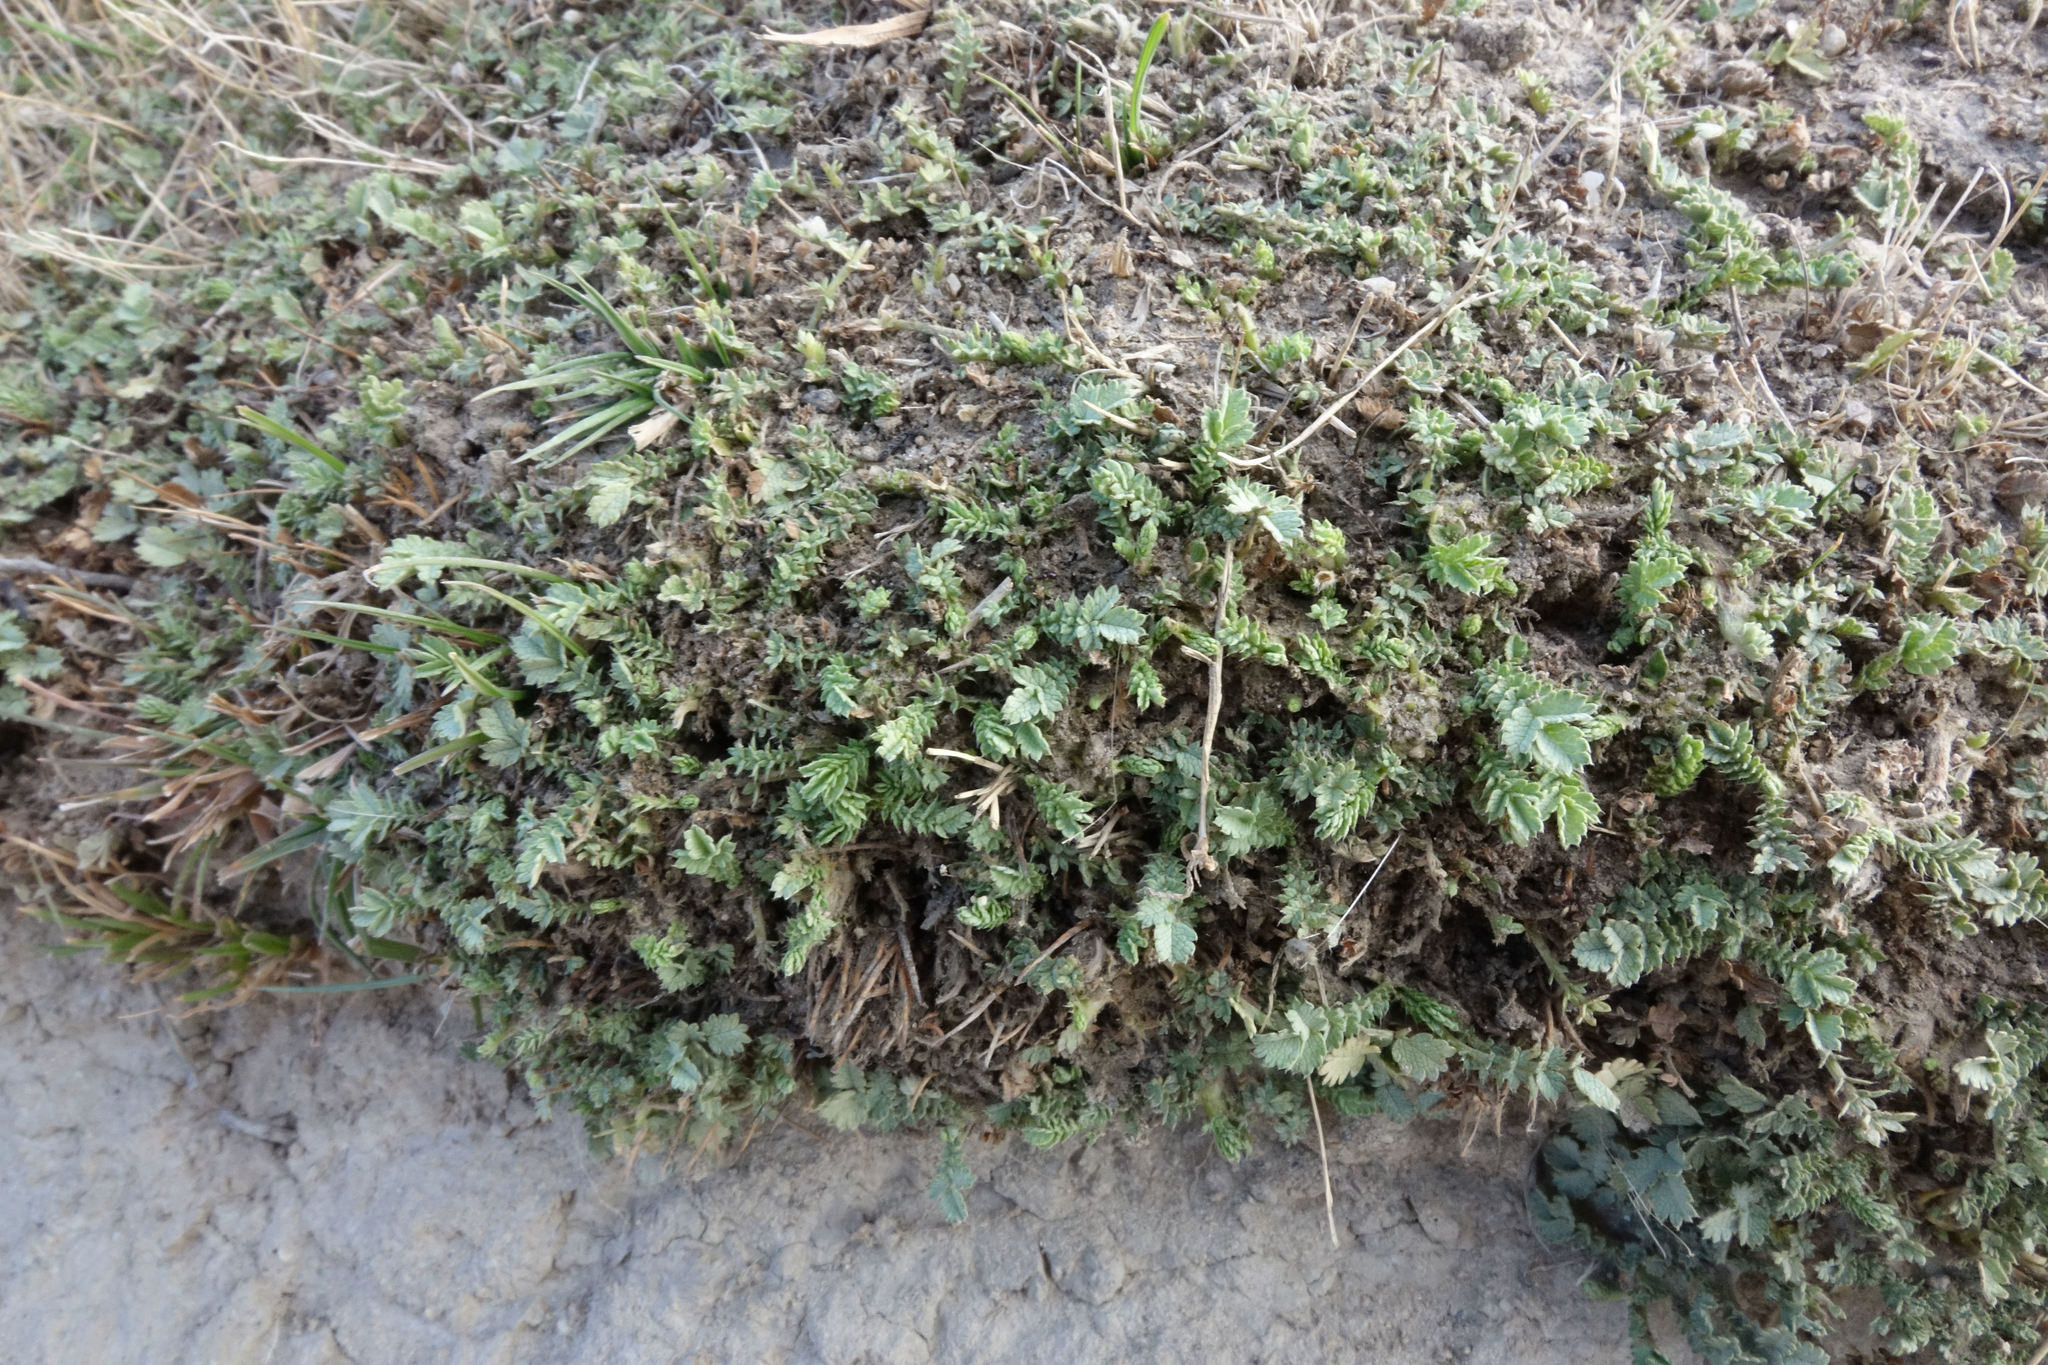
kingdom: Plantae
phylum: Tracheophyta
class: Magnoliopsida
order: Rosales
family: Rosaceae
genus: Acaena
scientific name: Acaena buchananii
